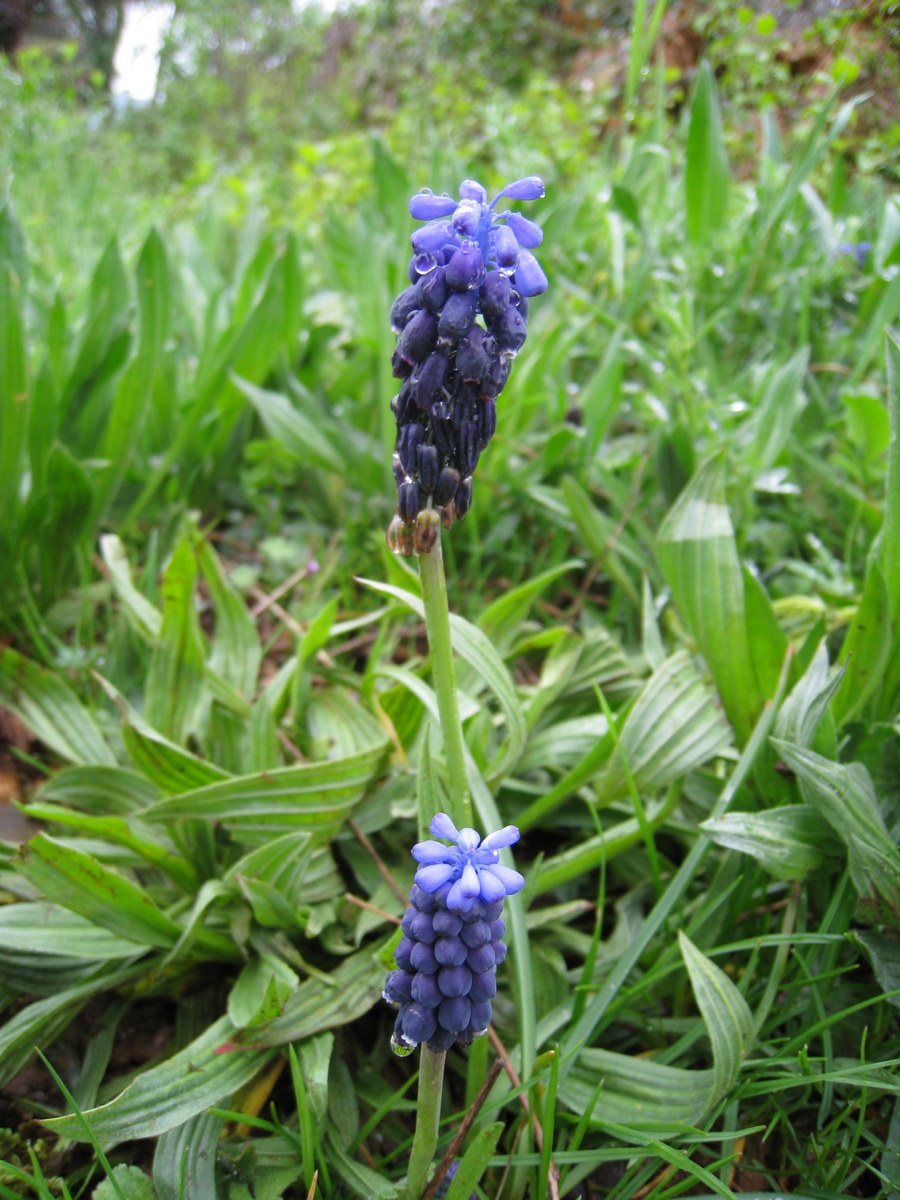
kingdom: Plantae
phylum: Tracheophyta
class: Liliopsida
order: Asparagales
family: Asparagaceae
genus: Muscari
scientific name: Muscari neglectum
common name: Grape-hyacinth
